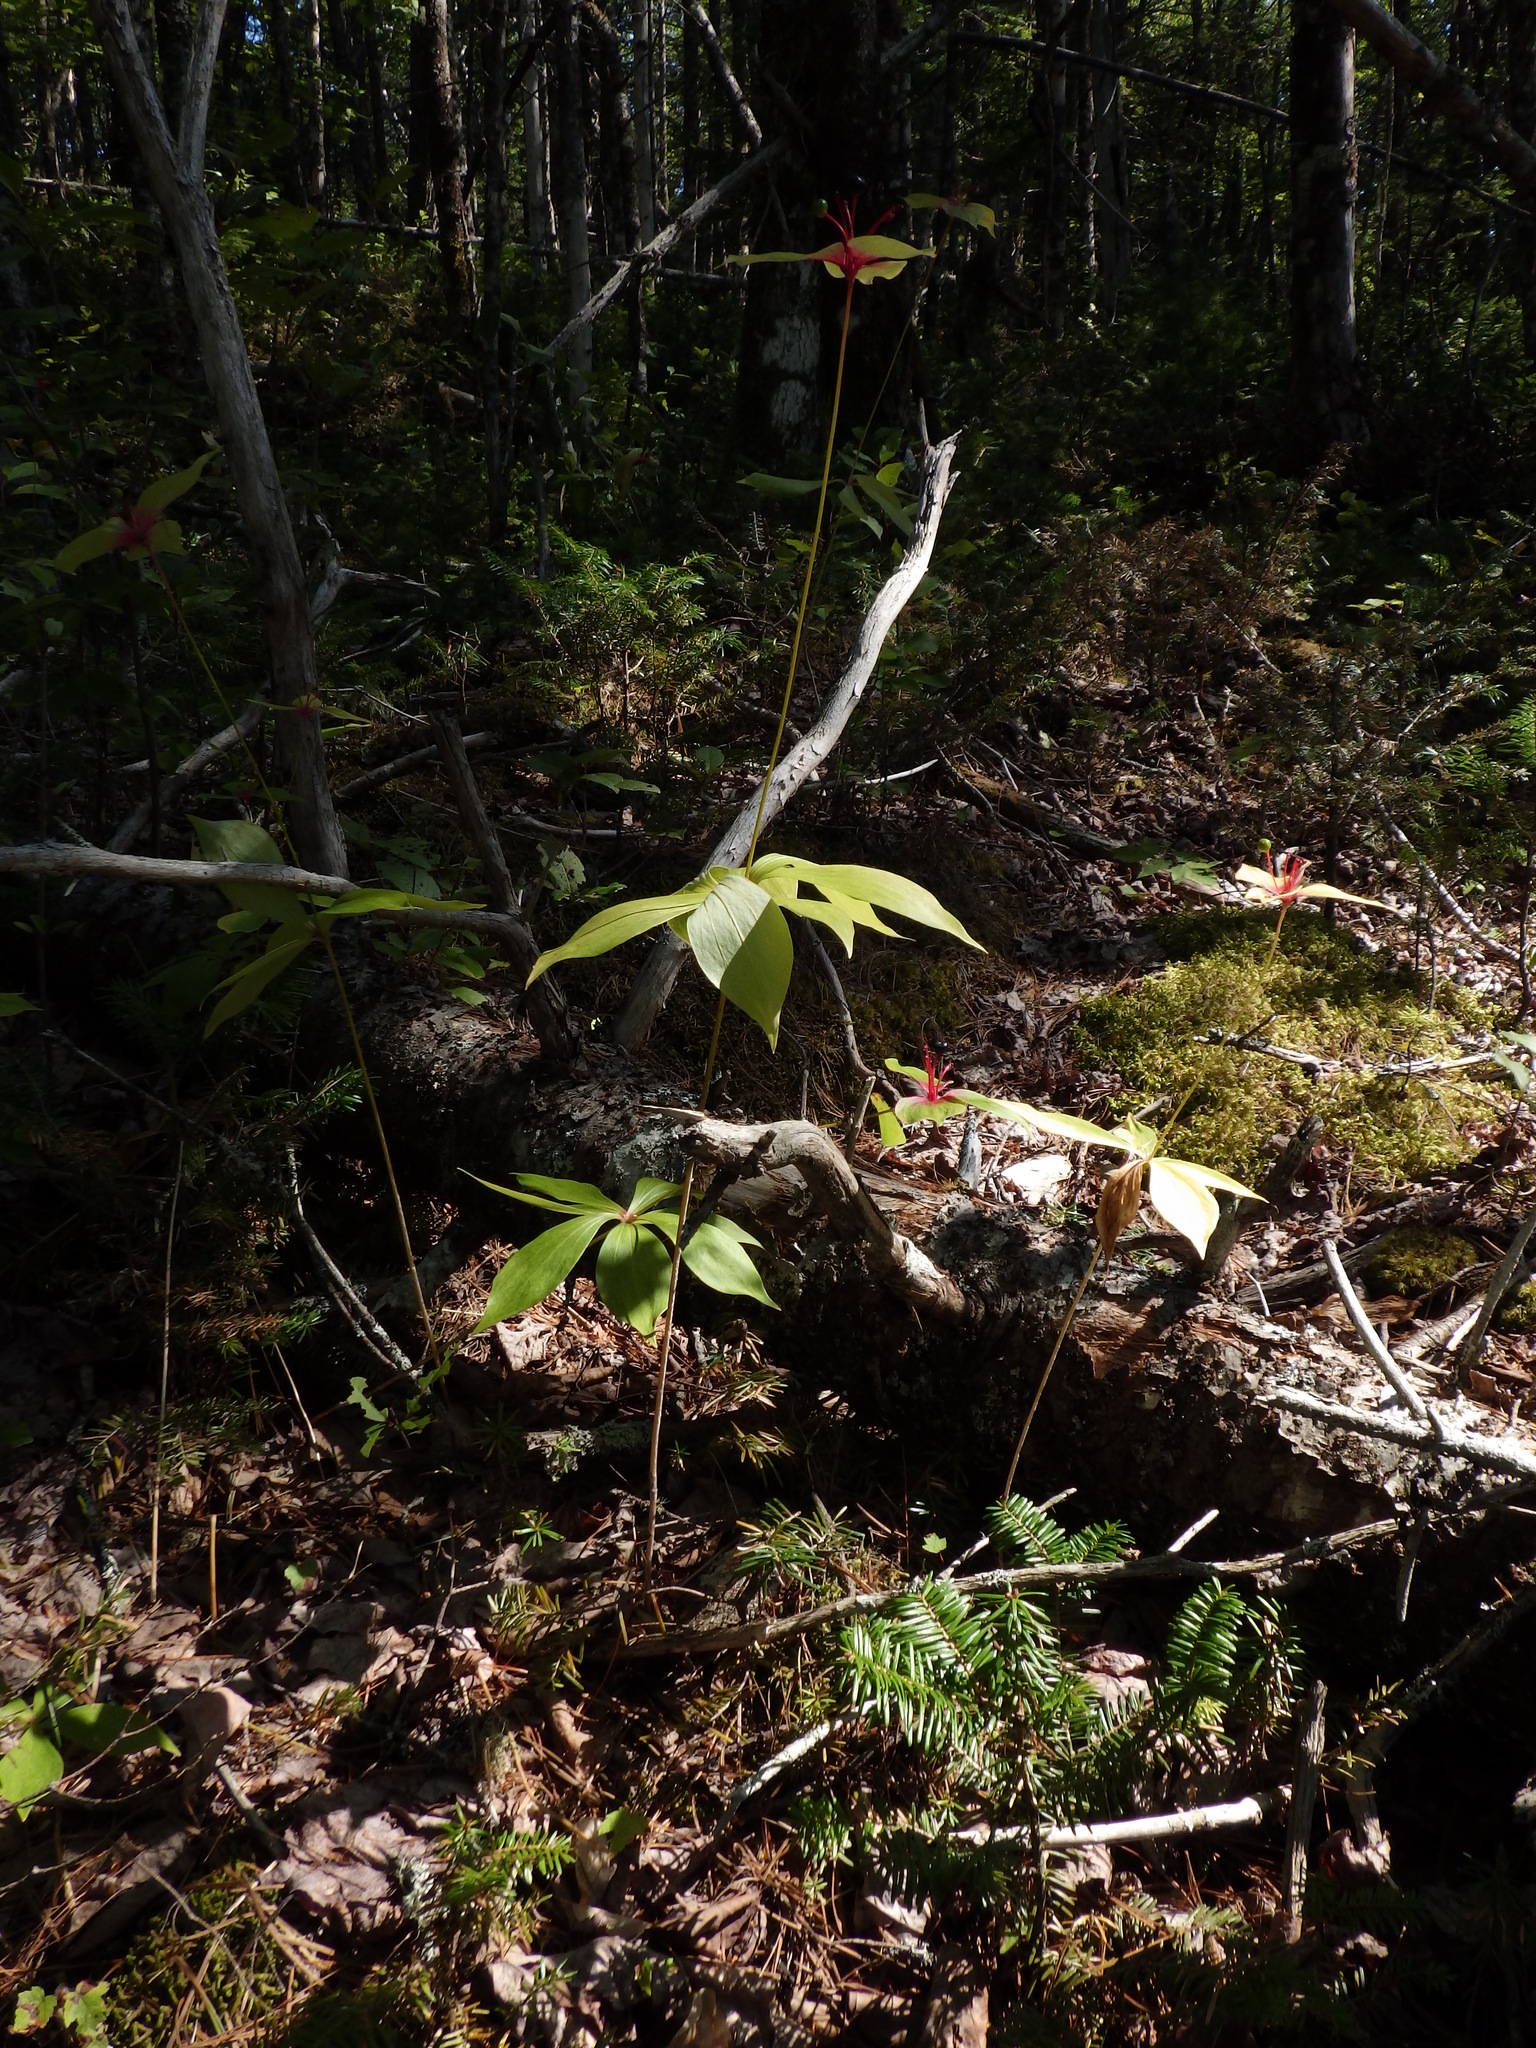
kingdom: Plantae
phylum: Tracheophyta
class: Liliopsida
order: Liliales
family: Liliaceae
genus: Medeola
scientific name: Medeola virginiana
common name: Indian cucumber-root
